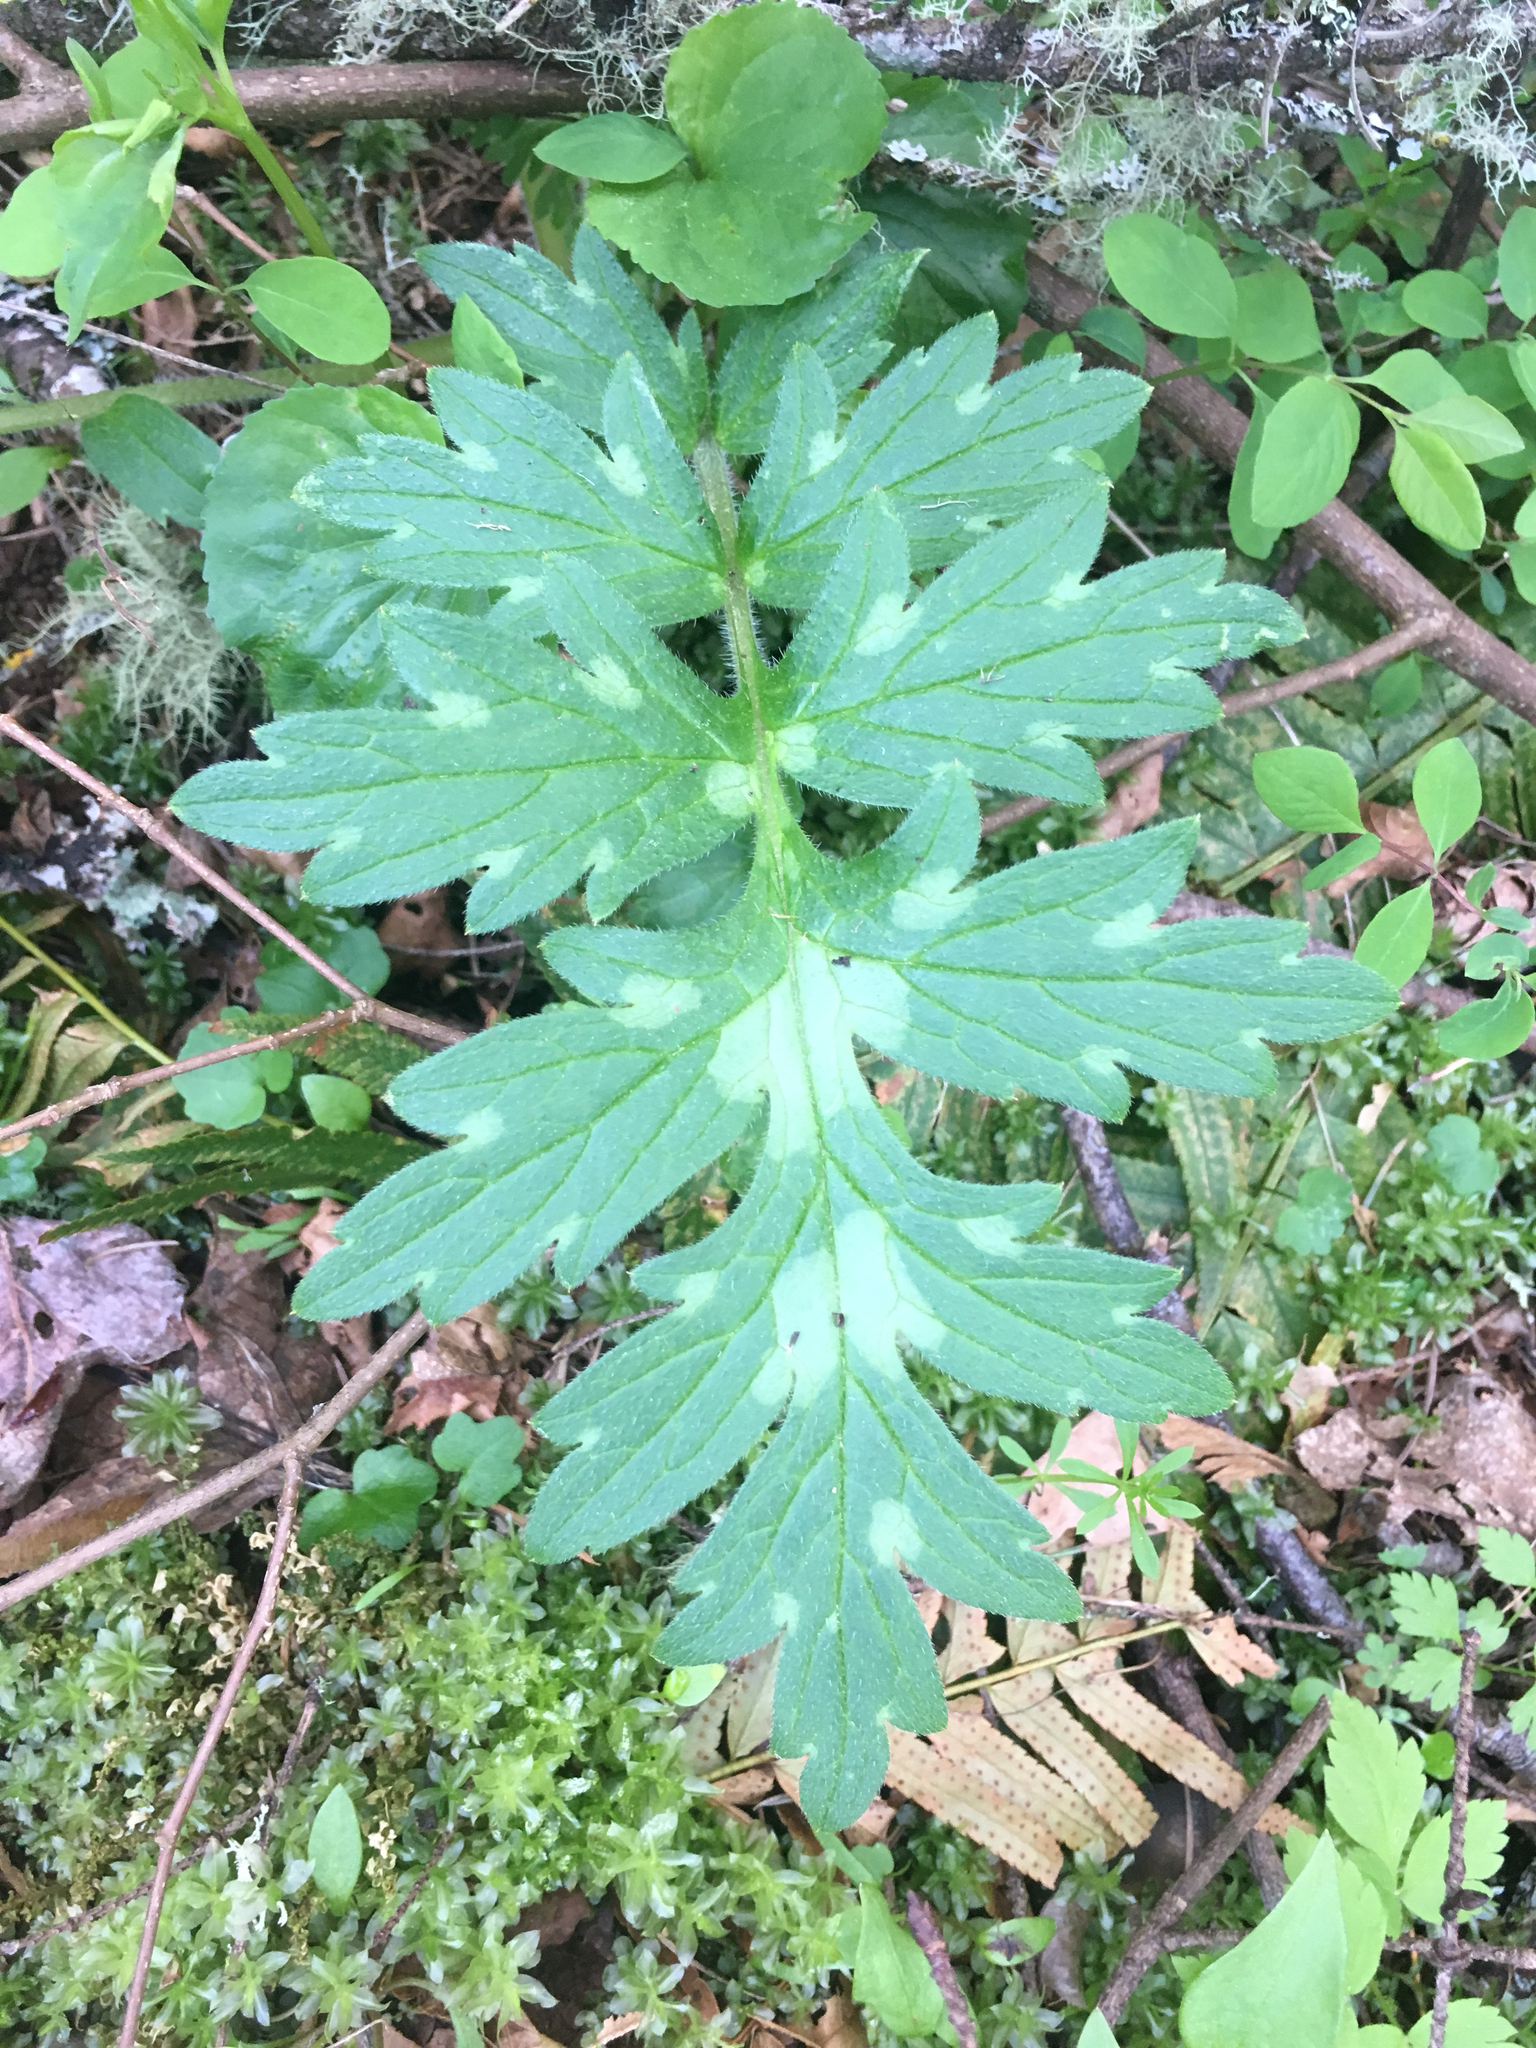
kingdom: Plantae
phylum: Tracheophyta
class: Magnoliopsida
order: Boraginales
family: Hydrophyllaceae
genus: Hydrophyllum
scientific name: Hydrophyllum occidentale
